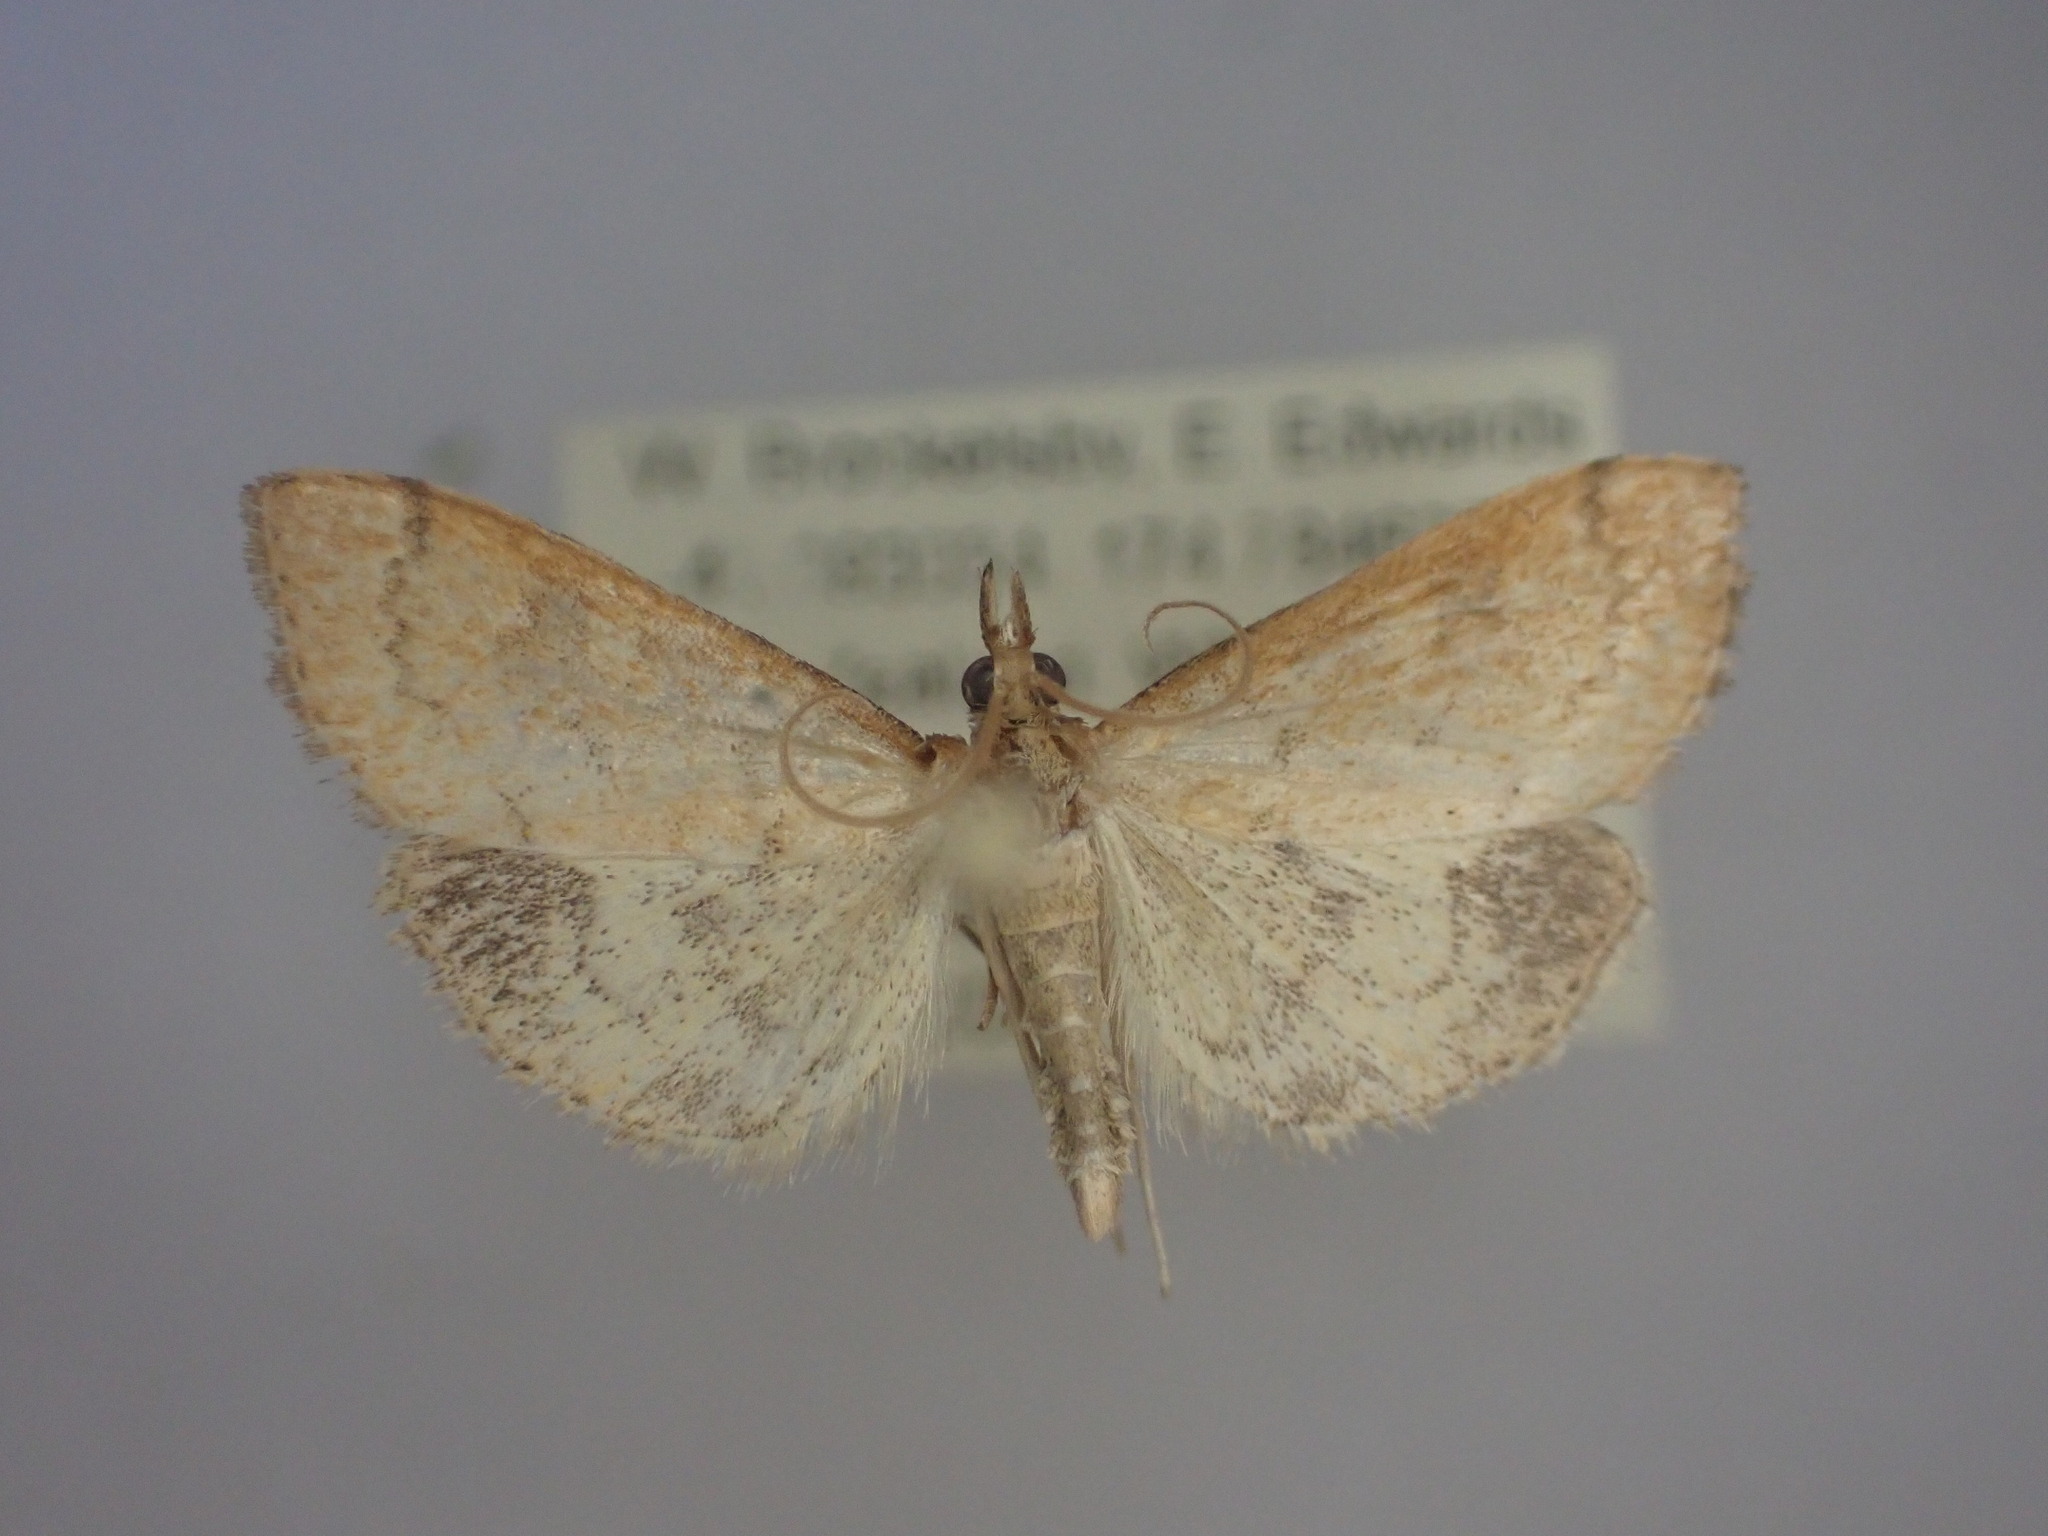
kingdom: Animalia
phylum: Arthropoda
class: Insecta
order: Lepidoptera
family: Crambidae
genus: Udea
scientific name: Udea Mnesictena flavidalis
